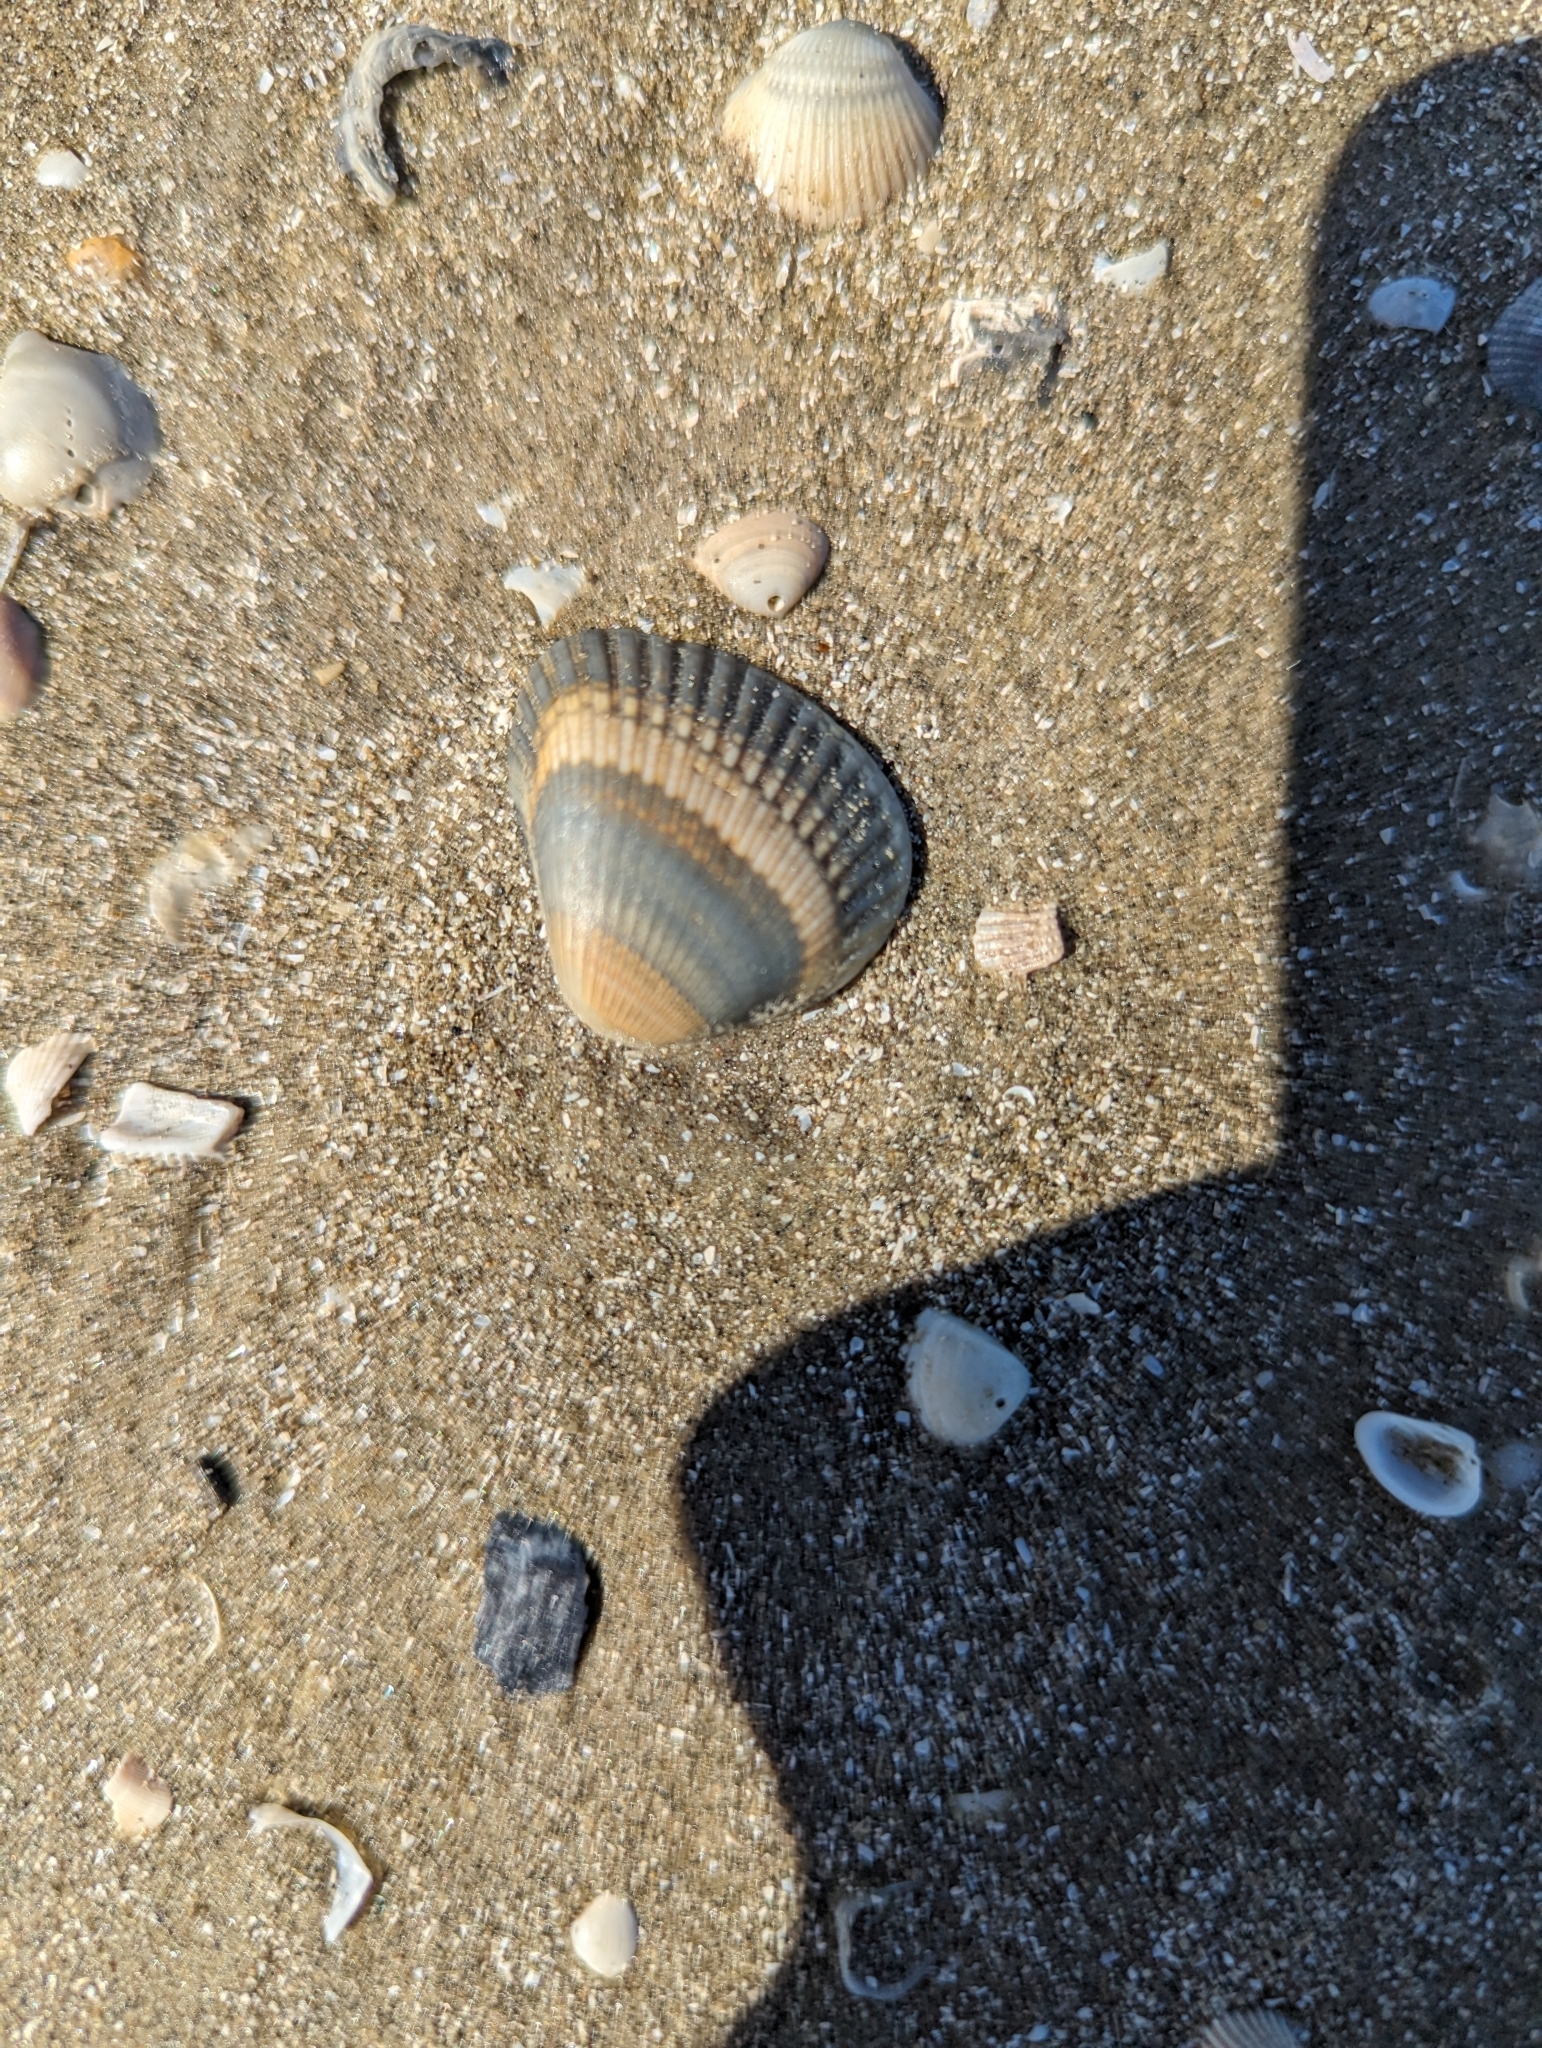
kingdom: Animalia
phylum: Mollusca
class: Bivalvia
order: Arcida
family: Noetiidae
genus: Noetia
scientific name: Noetia ponderosa
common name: Ponderous ark
